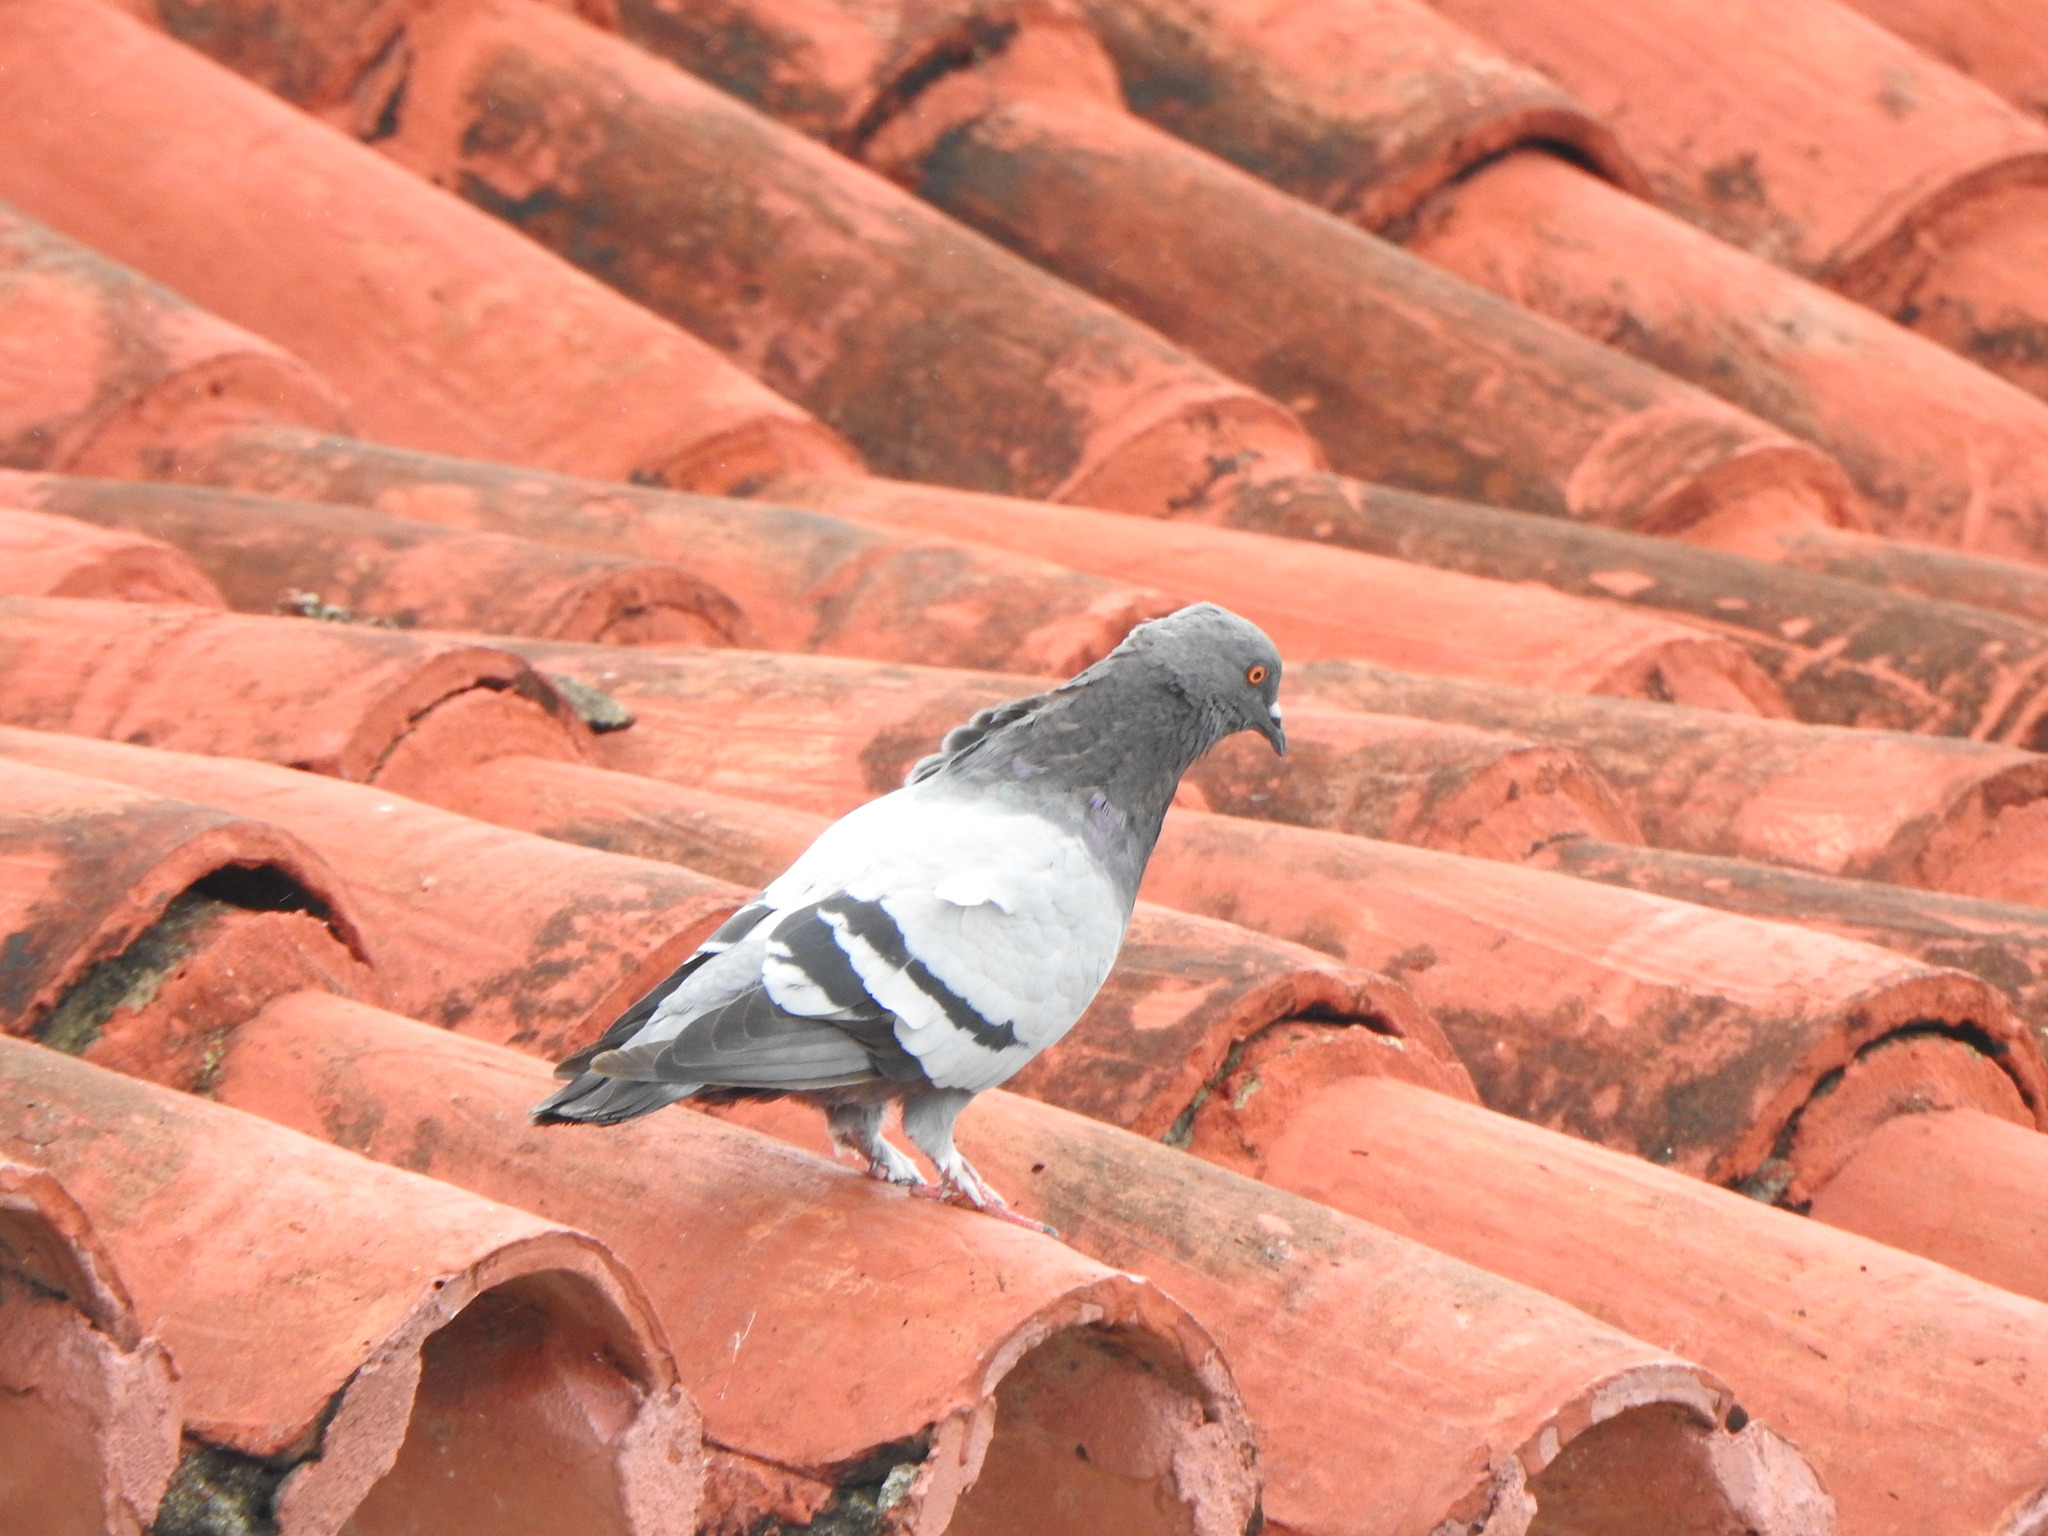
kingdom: Animalia
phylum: Chordata
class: Aves
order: Columbiformes
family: Columbidae
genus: Columba
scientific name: Columba livia
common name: Rock pigeon
